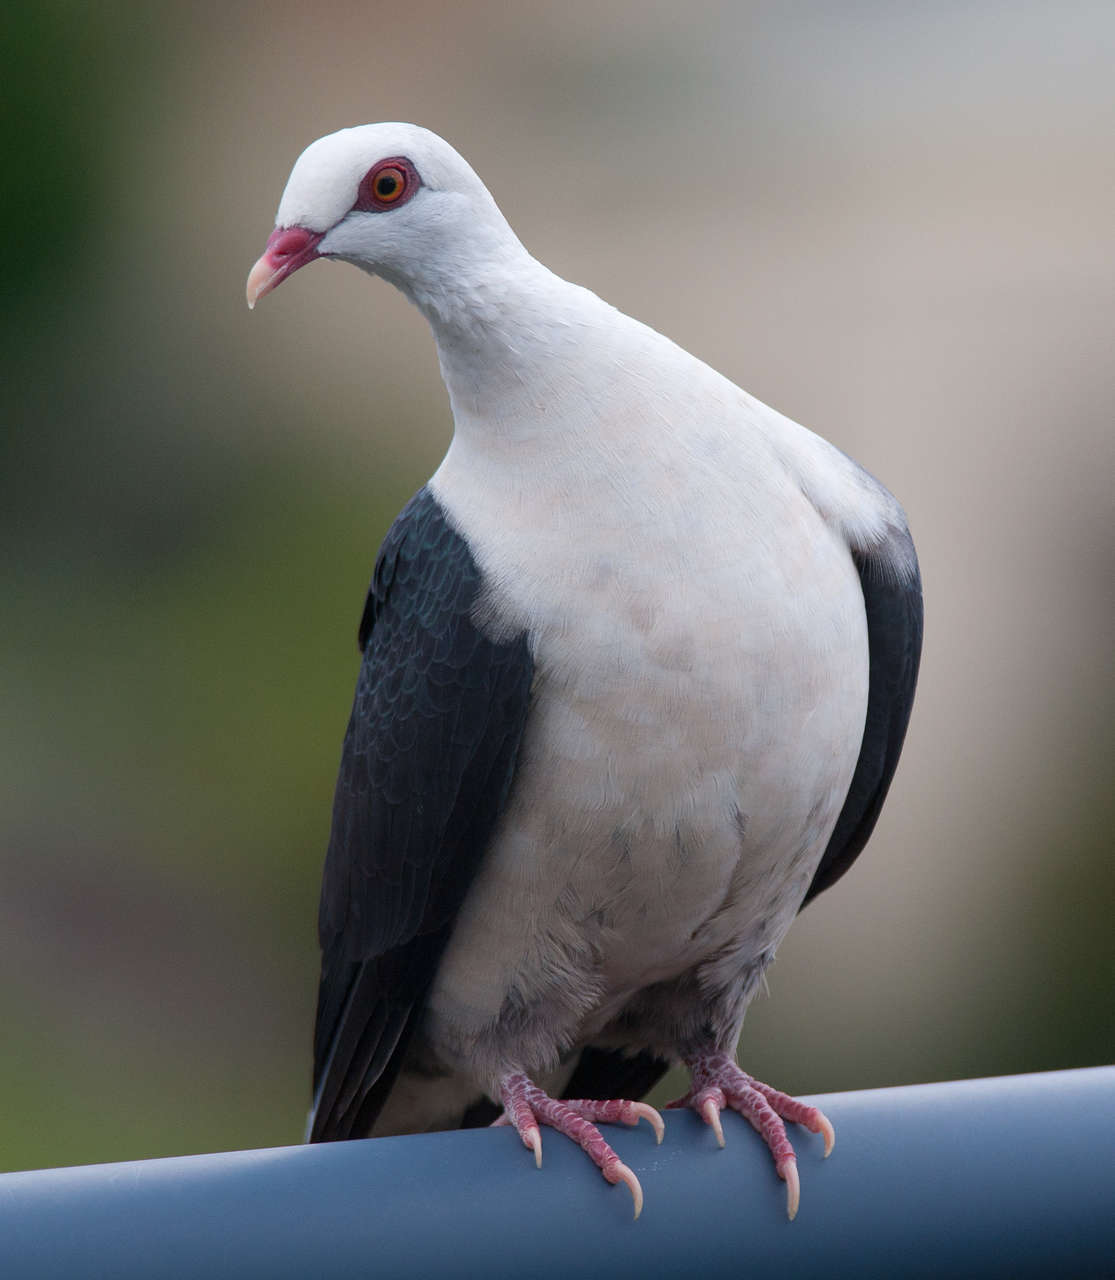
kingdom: Animalia
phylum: Chordata
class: Aves
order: Columbiformes
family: Columbidae
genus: Columba
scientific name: Columba leucomela
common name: White-headed pigeon
